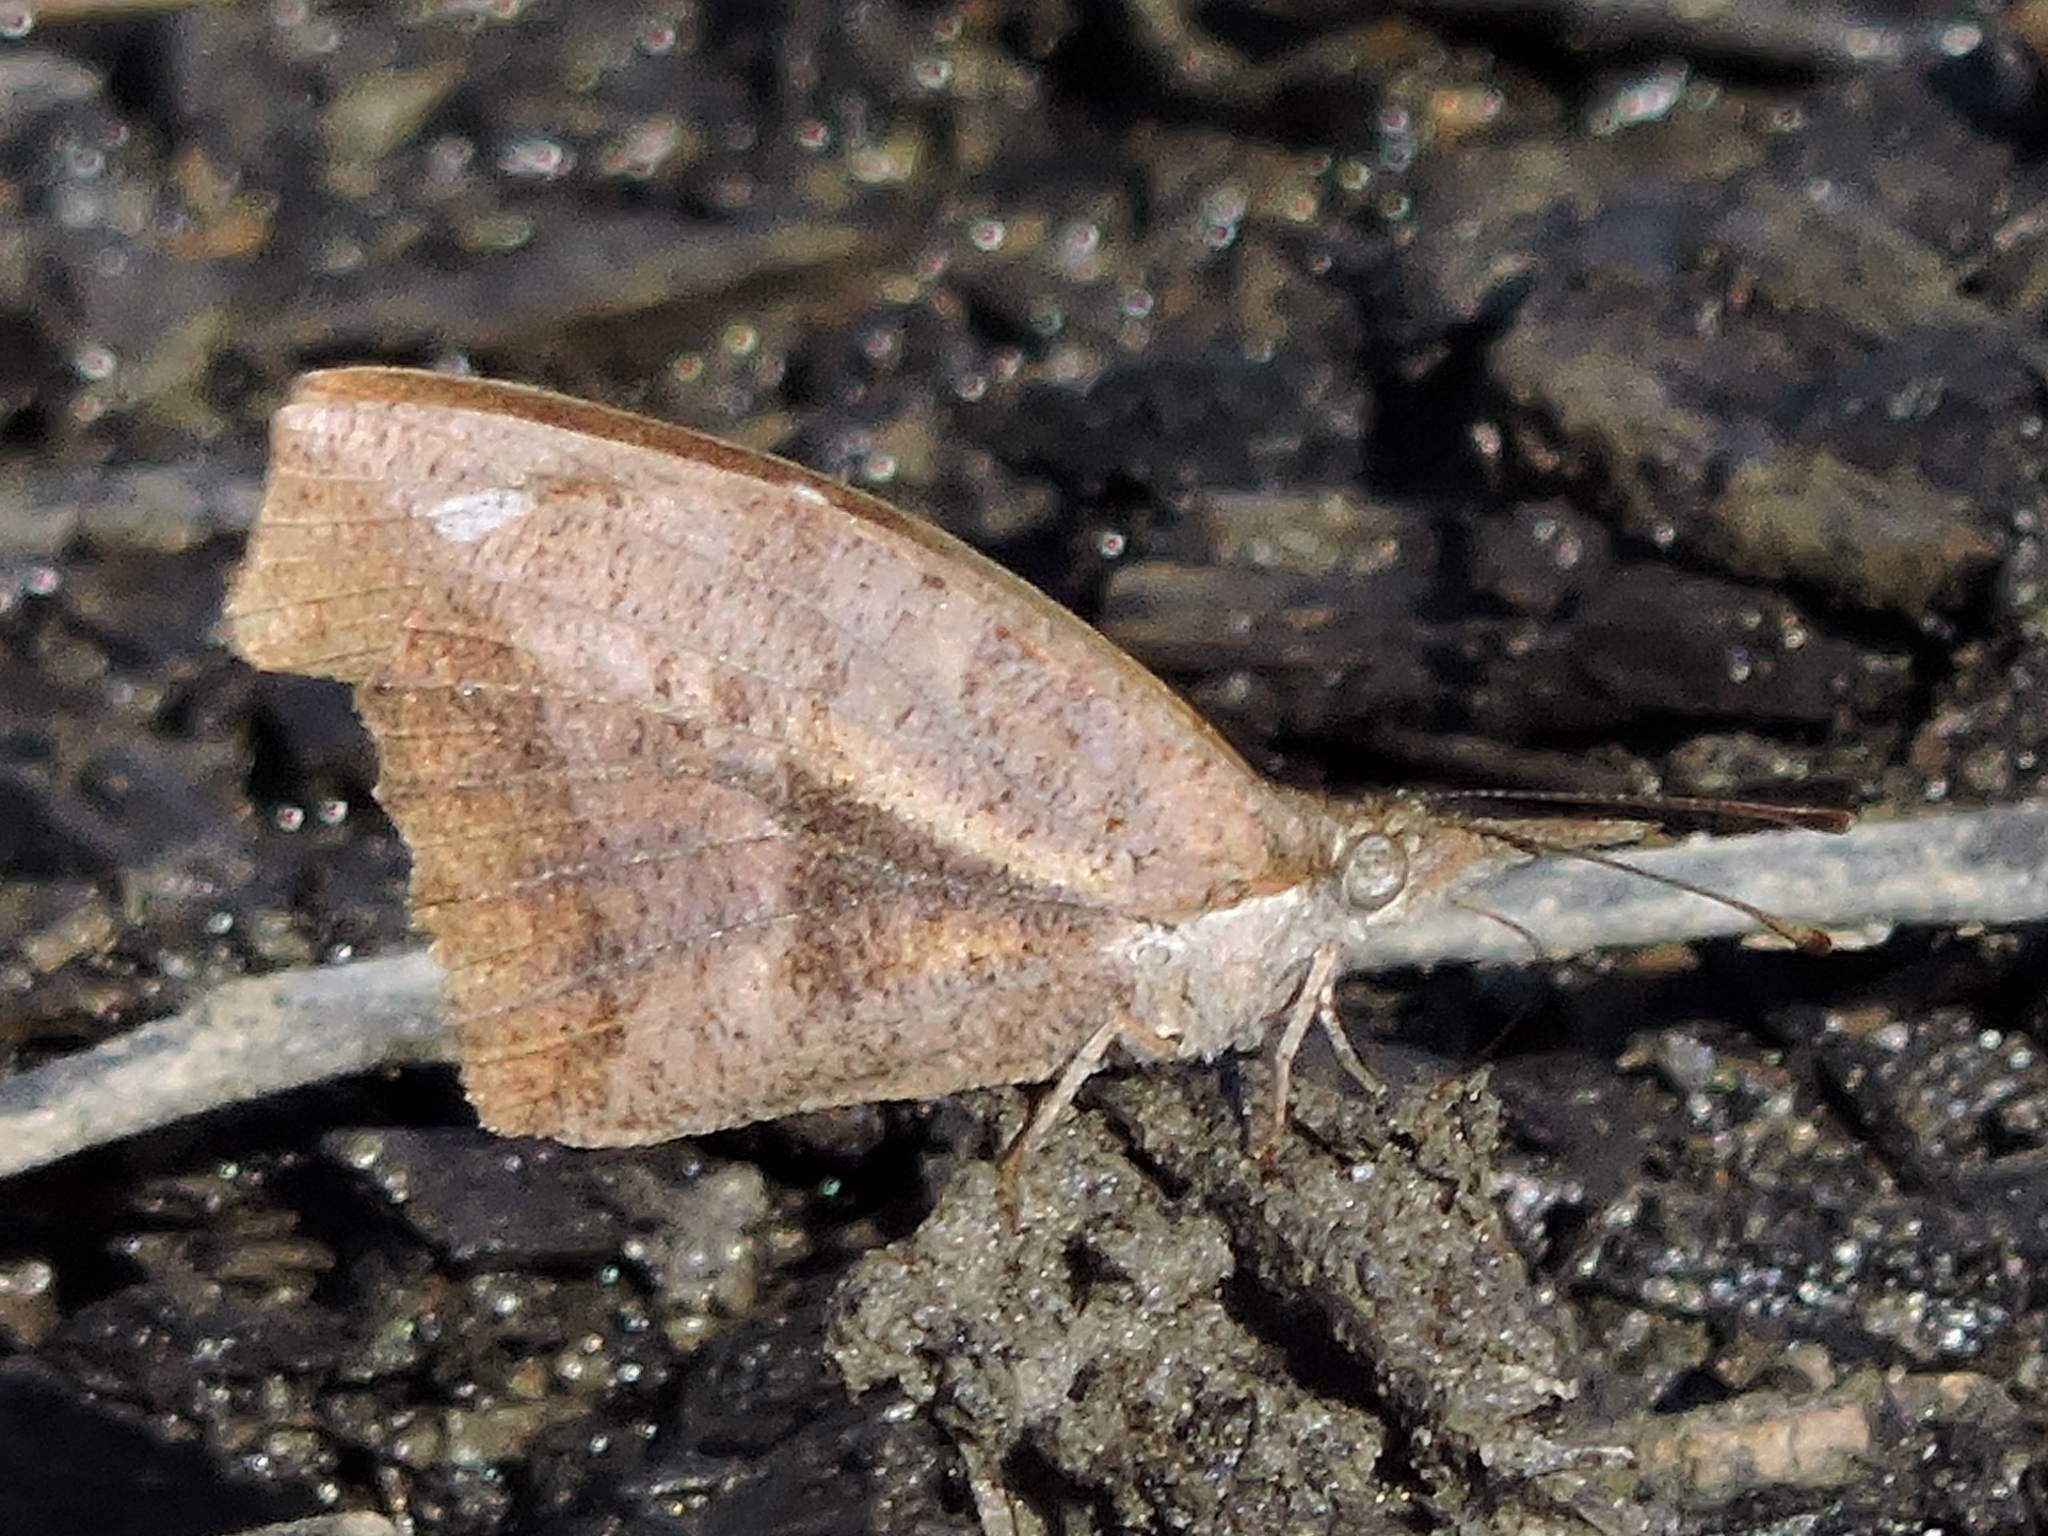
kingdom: Animalia
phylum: Arthropoda
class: Insecta
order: Lepidoptera
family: Nymphalidae
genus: Libytheana
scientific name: Libytheana carinenta
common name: American snout
